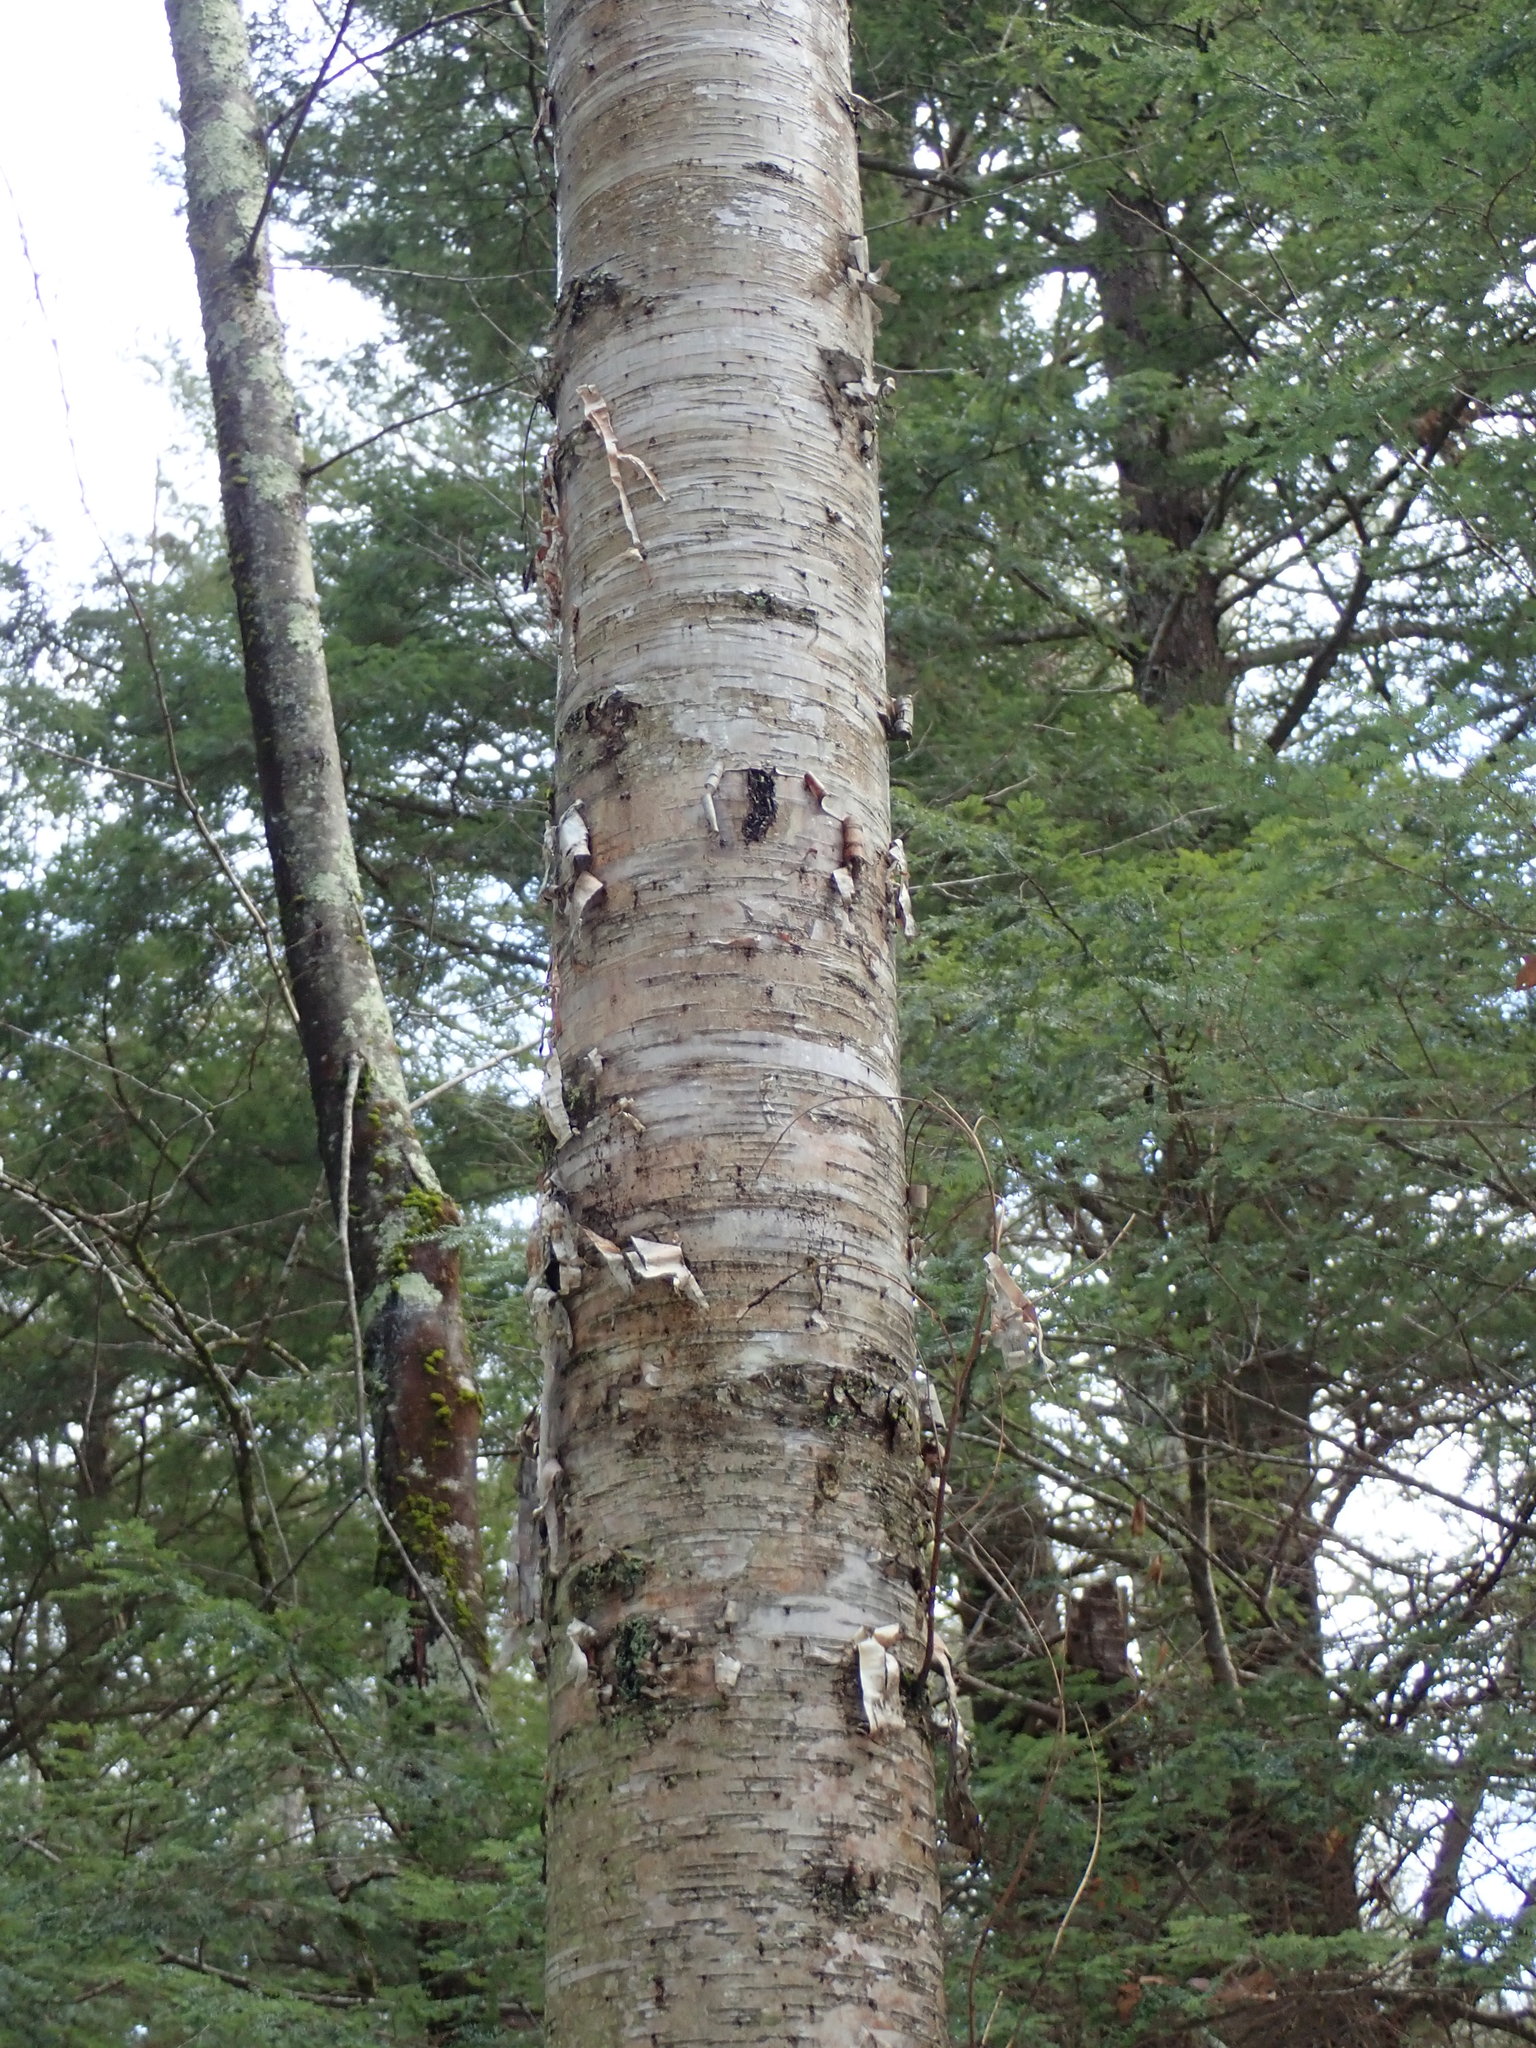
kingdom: Plantae
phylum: Tracheophyta
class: Magnoliopsida
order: Fagales
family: Betulaceae
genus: Betula
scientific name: Betula papyrifera
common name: Paper birch
